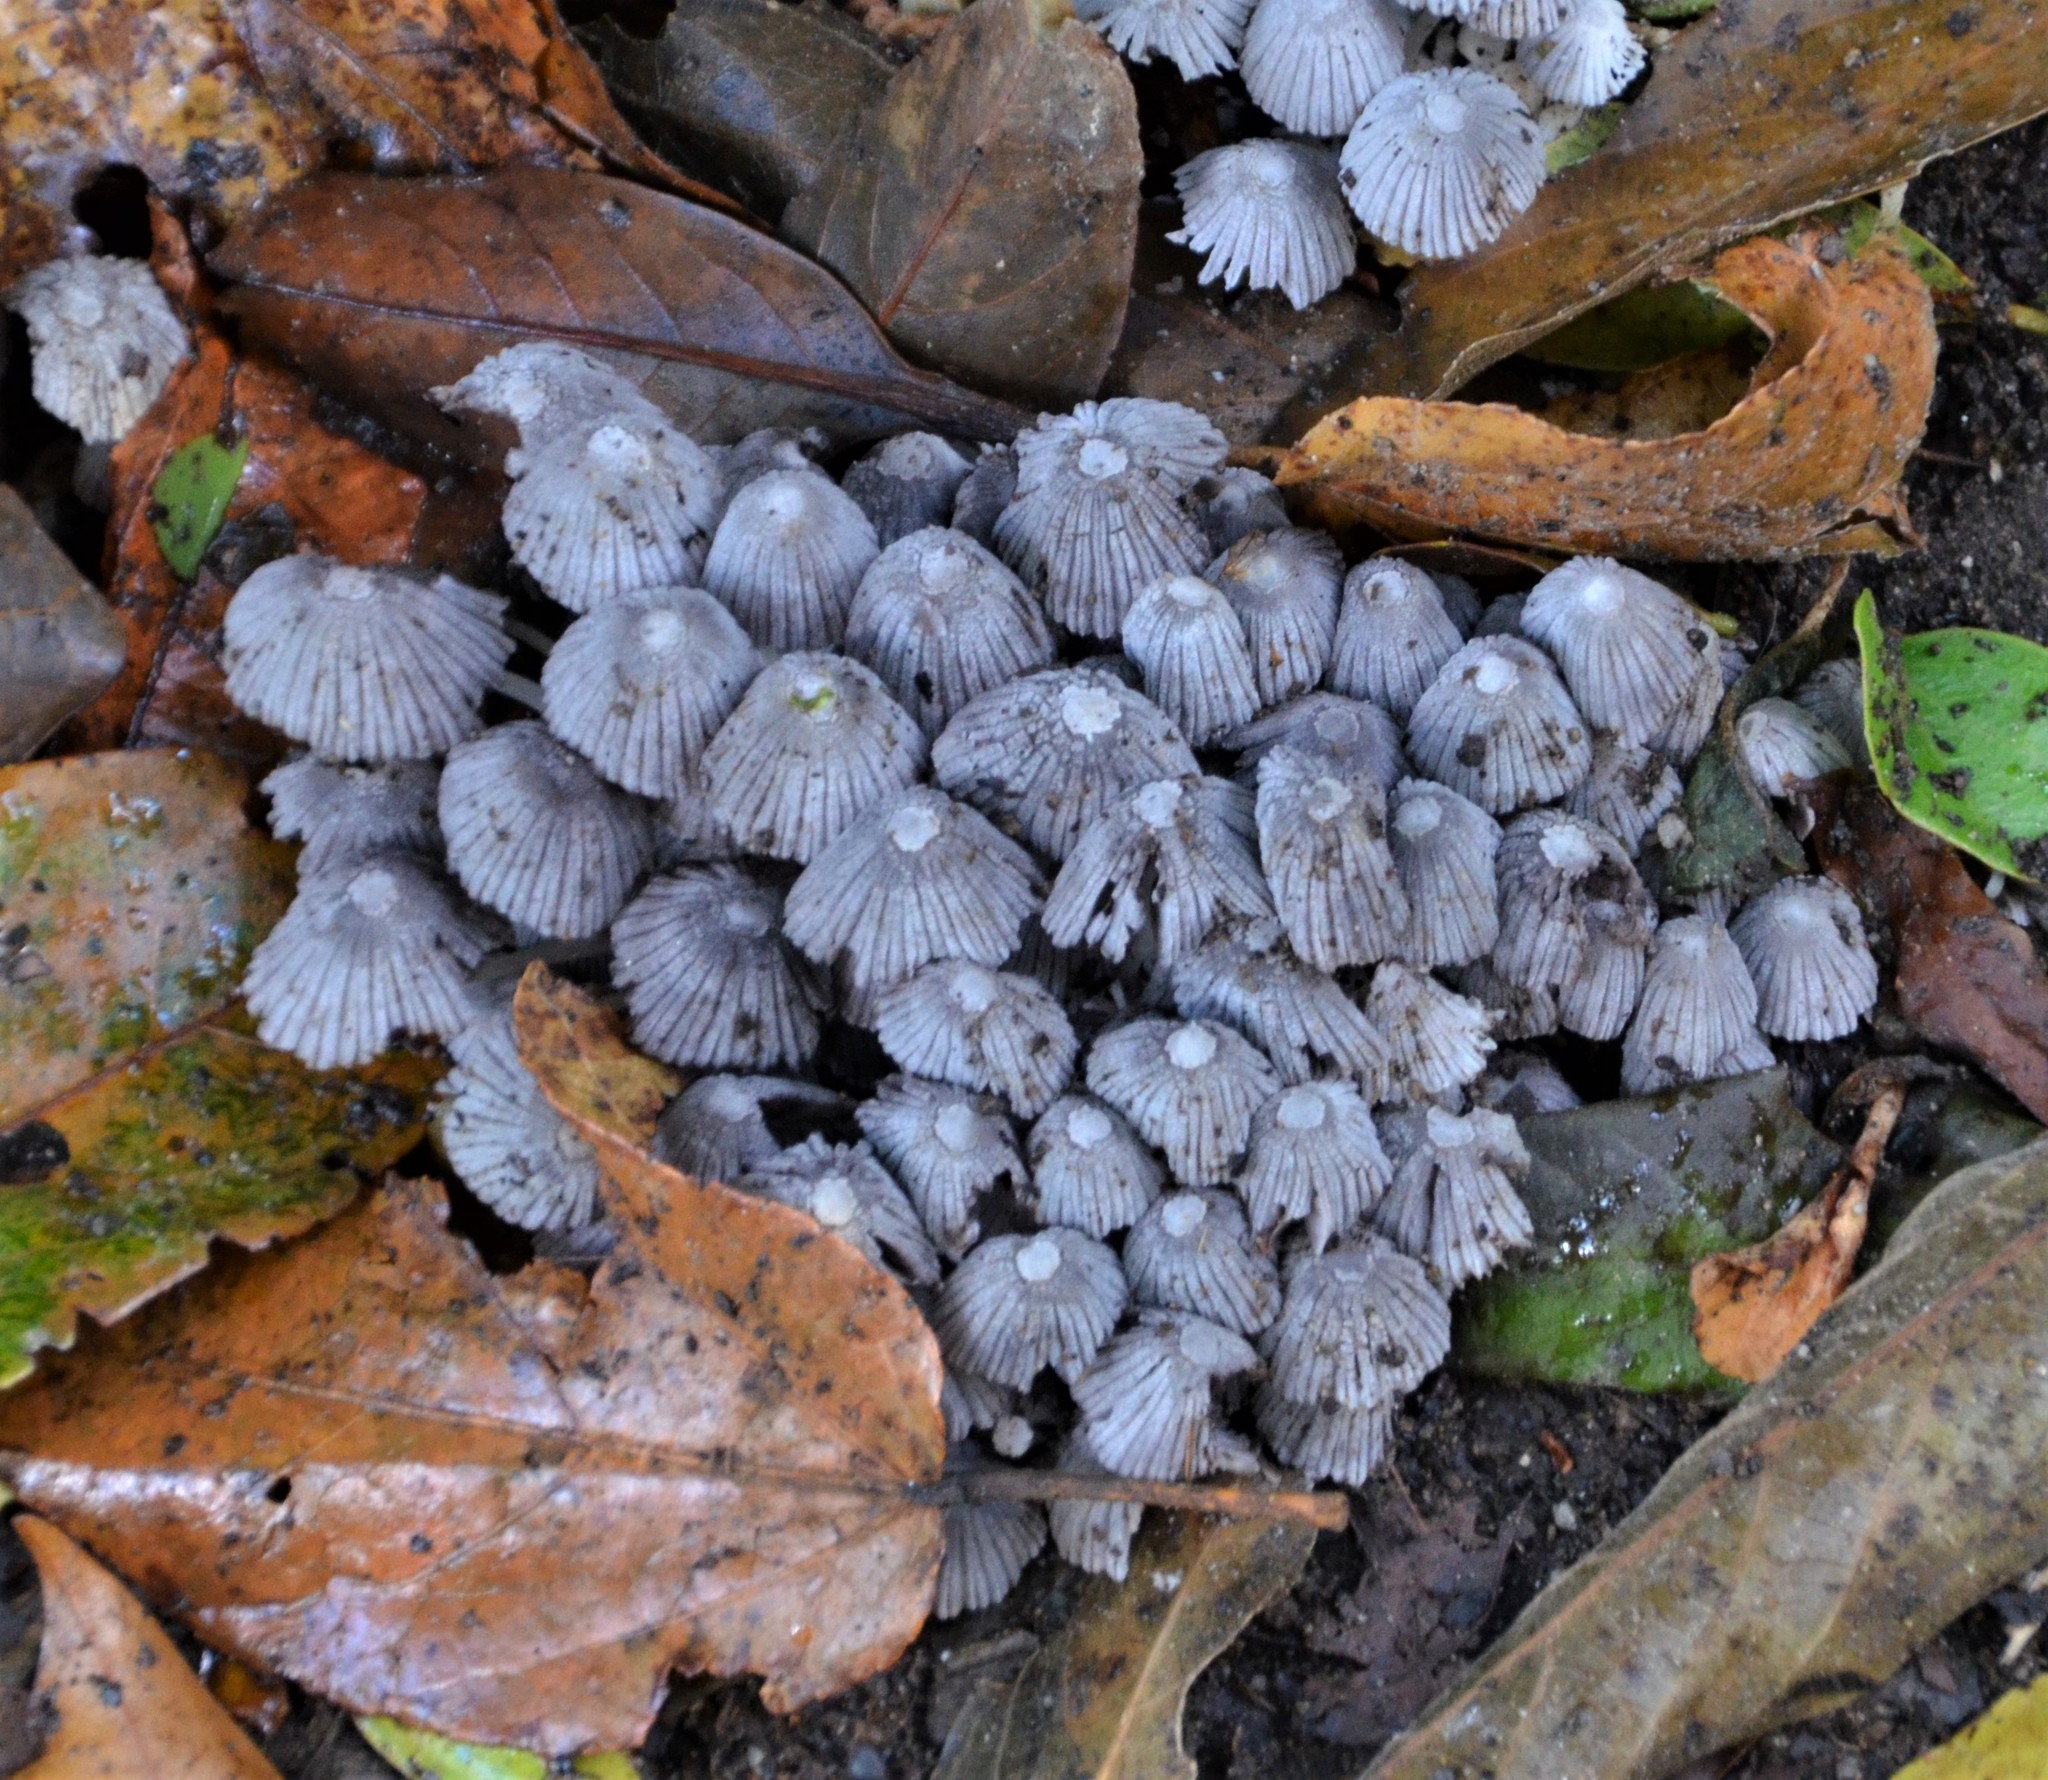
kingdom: Fungi
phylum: Basidiomycota
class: Agaricomycetes
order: Agaricales
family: Psathyrellaceae
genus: Coprinellus
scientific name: Coprinellus disseminatus
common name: Fairies' bonnets
